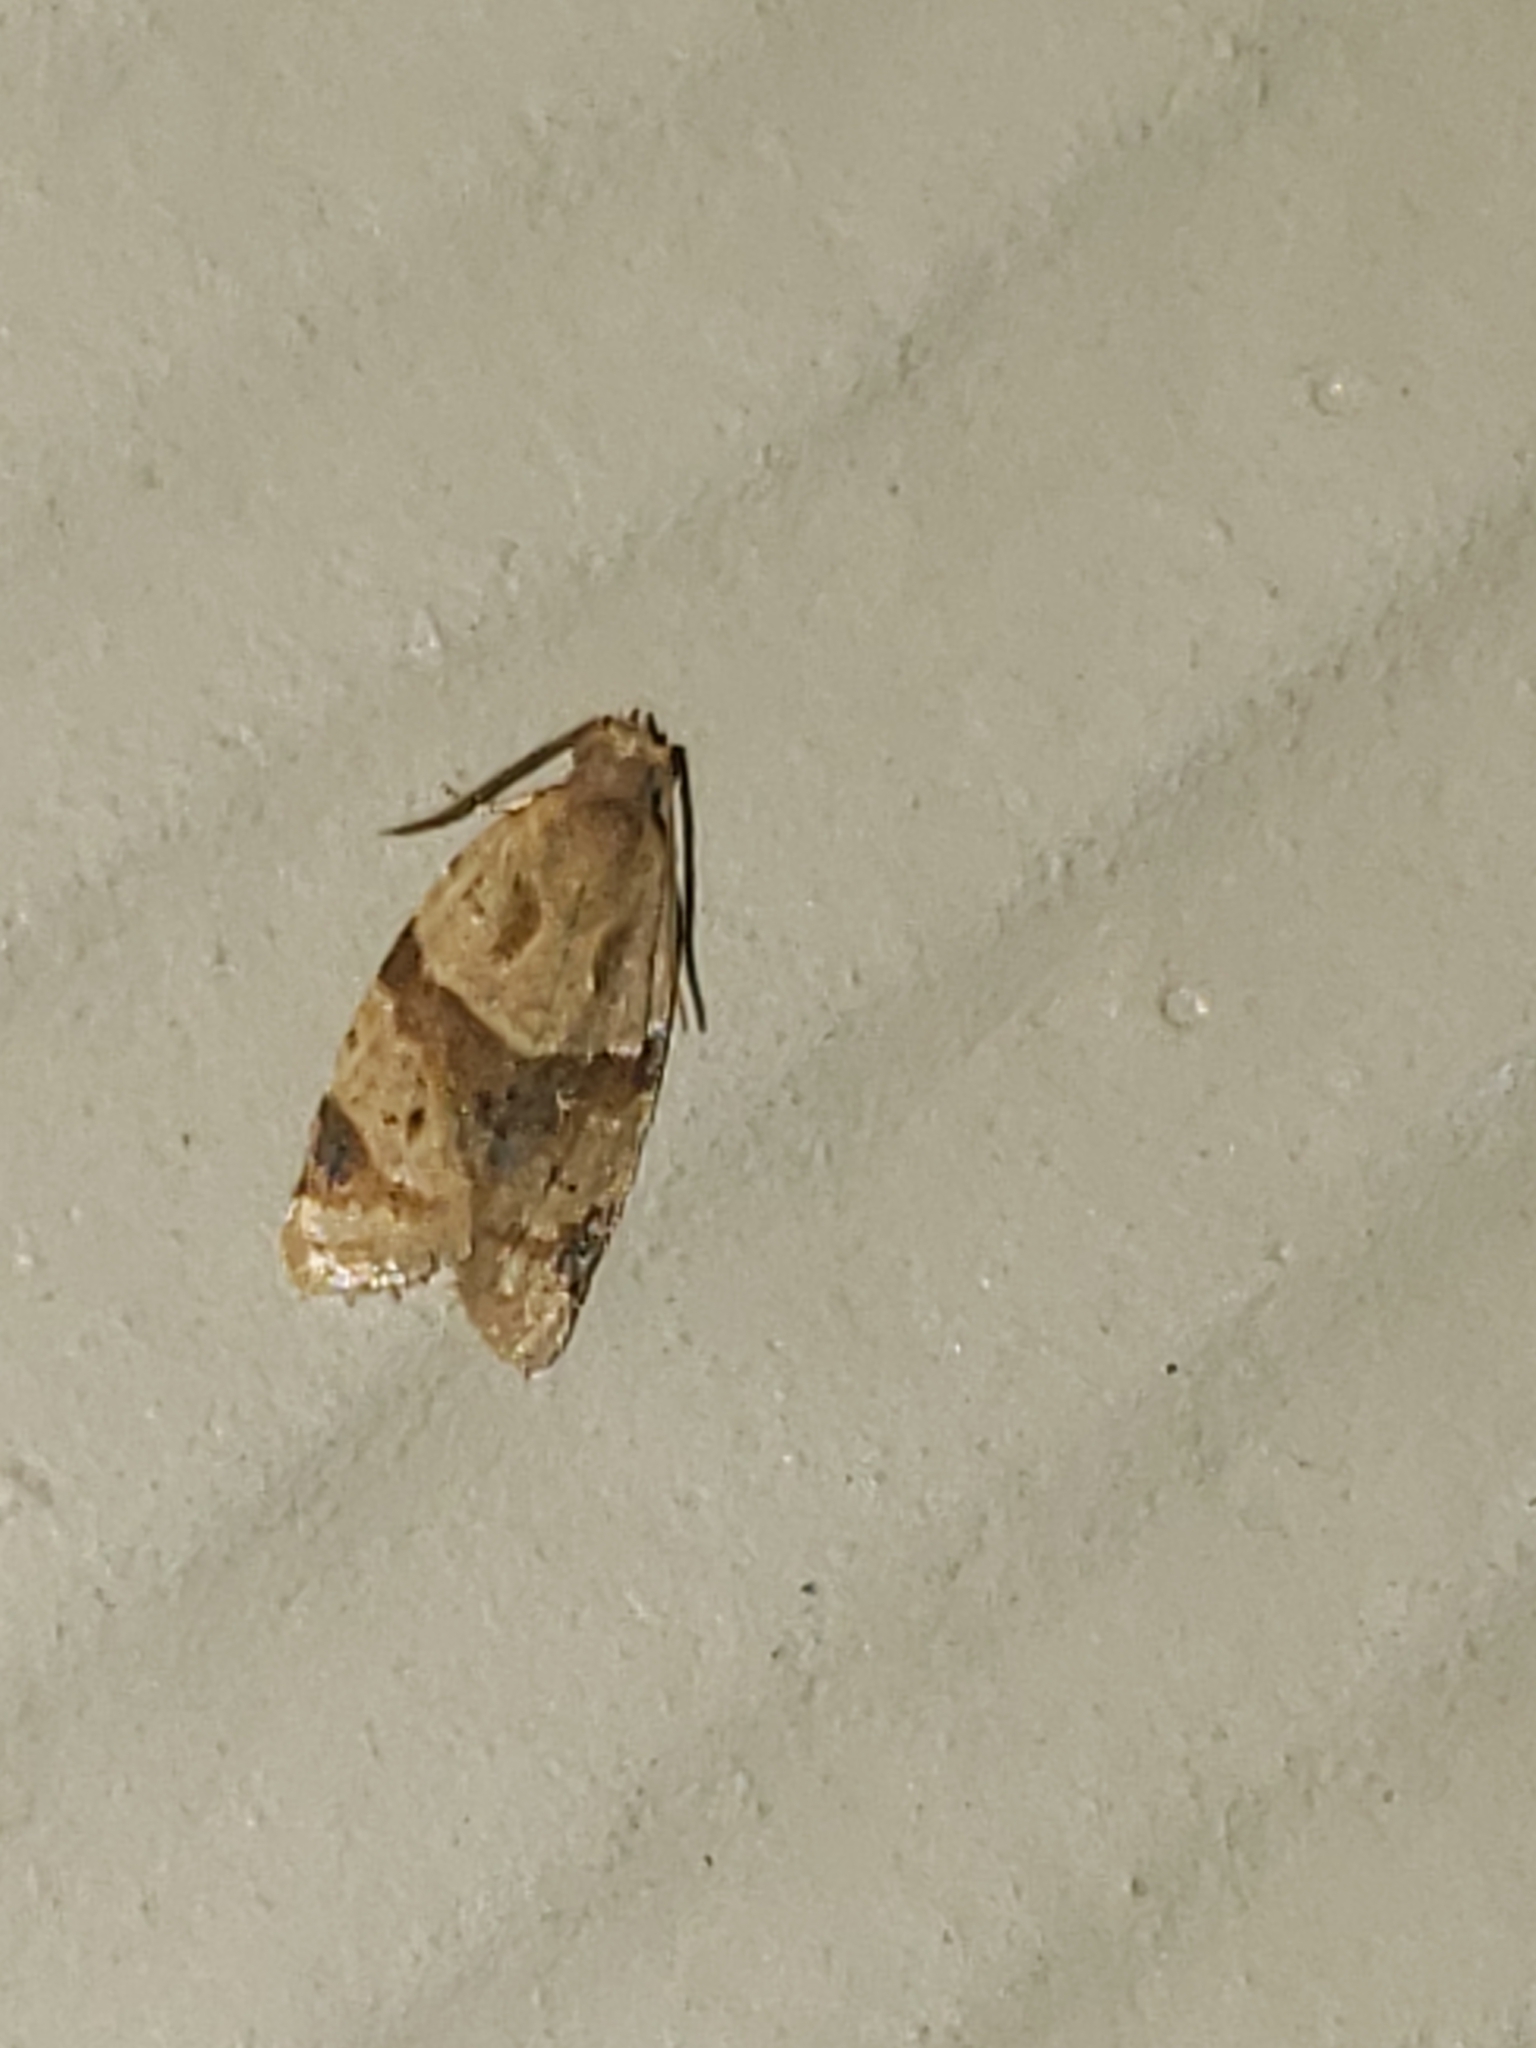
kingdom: Animalia
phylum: Arthropoda
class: Insecta
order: Lepidoptera
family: Tortricidae
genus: Clepsis
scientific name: Clepsis peritana
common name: Garden tortrix
